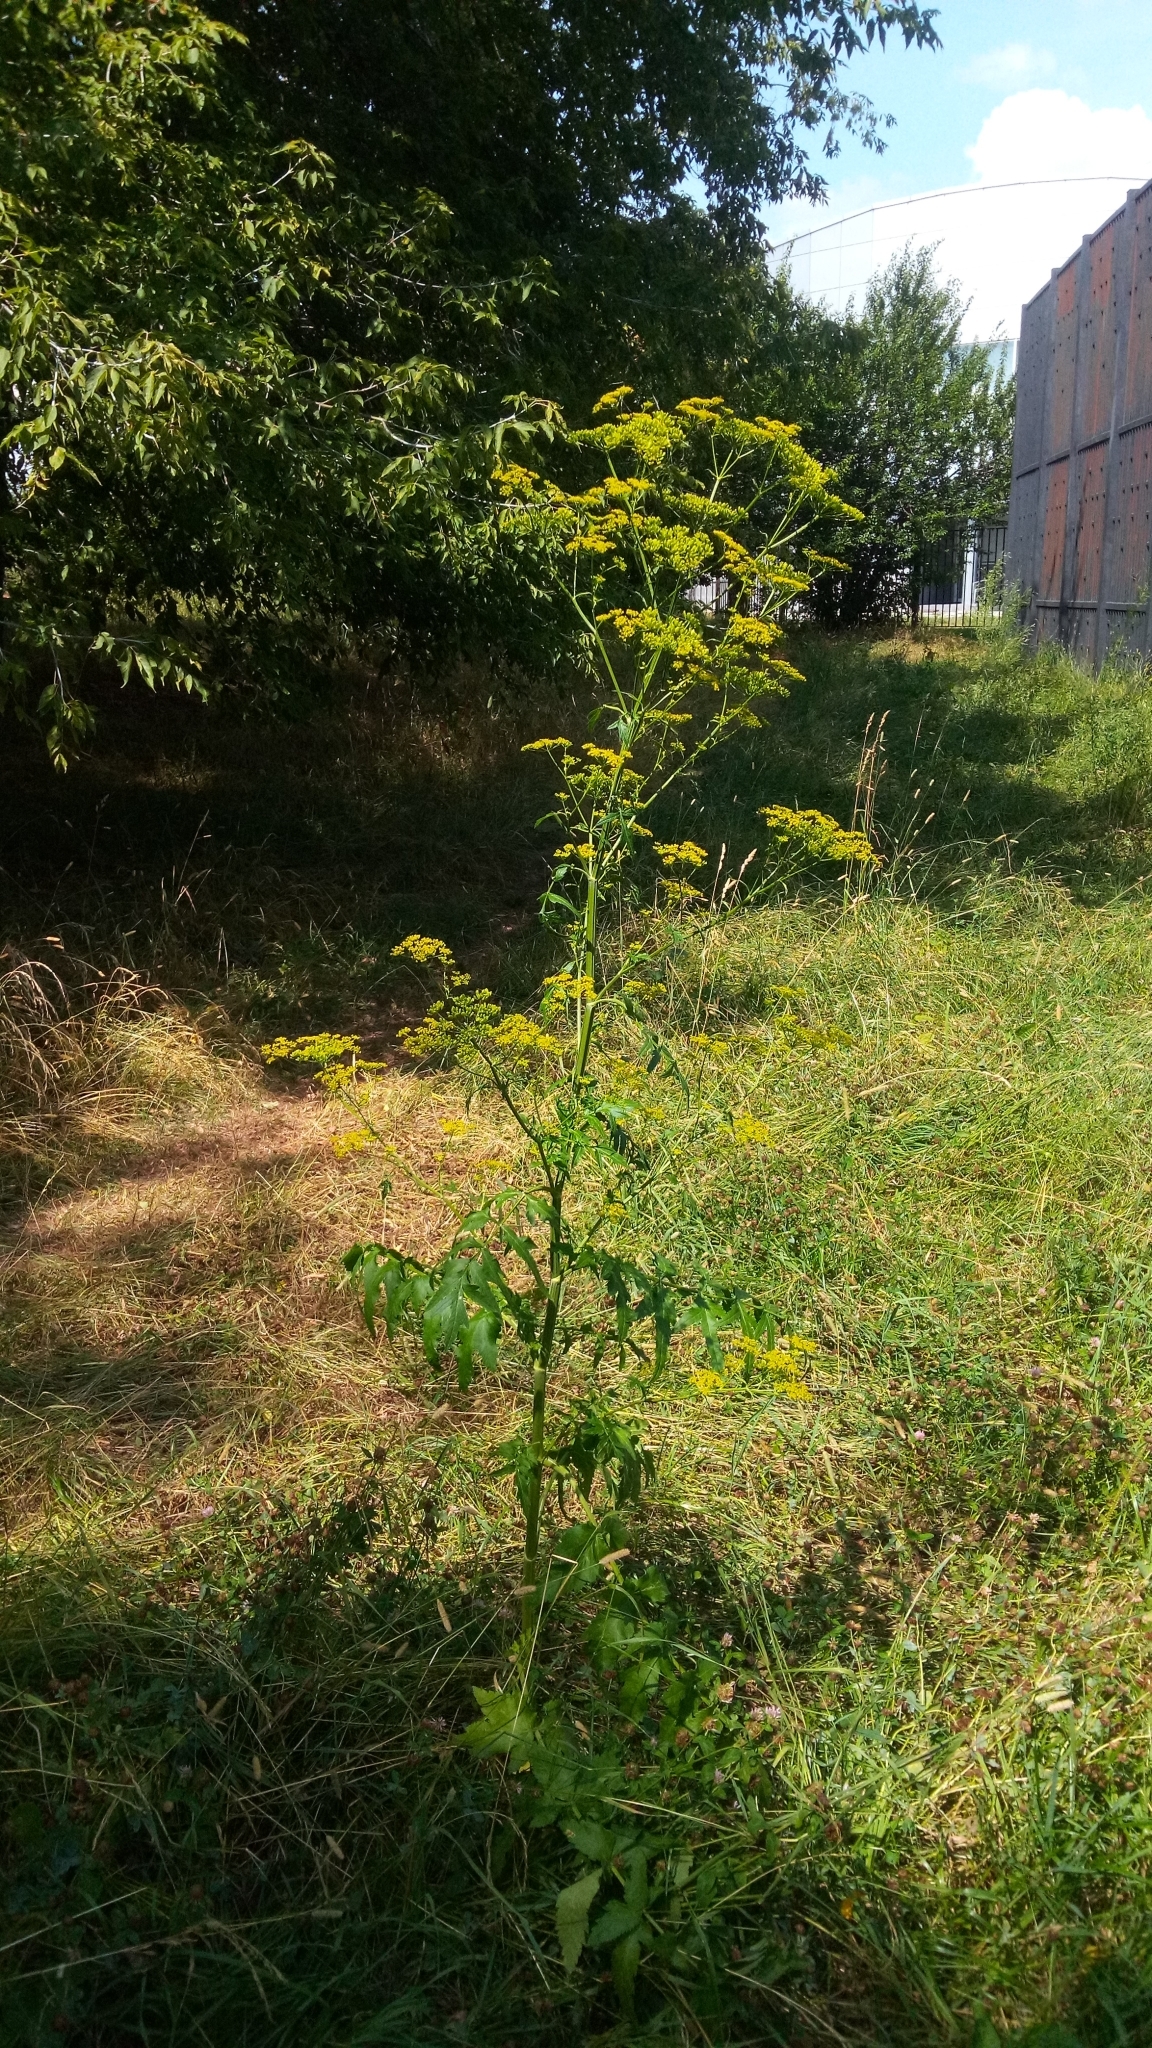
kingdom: Plantae
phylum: Tracheophyta
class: Magnoliopsida
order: Apiales
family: Apiaceae
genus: Pastinaca
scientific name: Pastinaca sativa
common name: Wild parsnip
